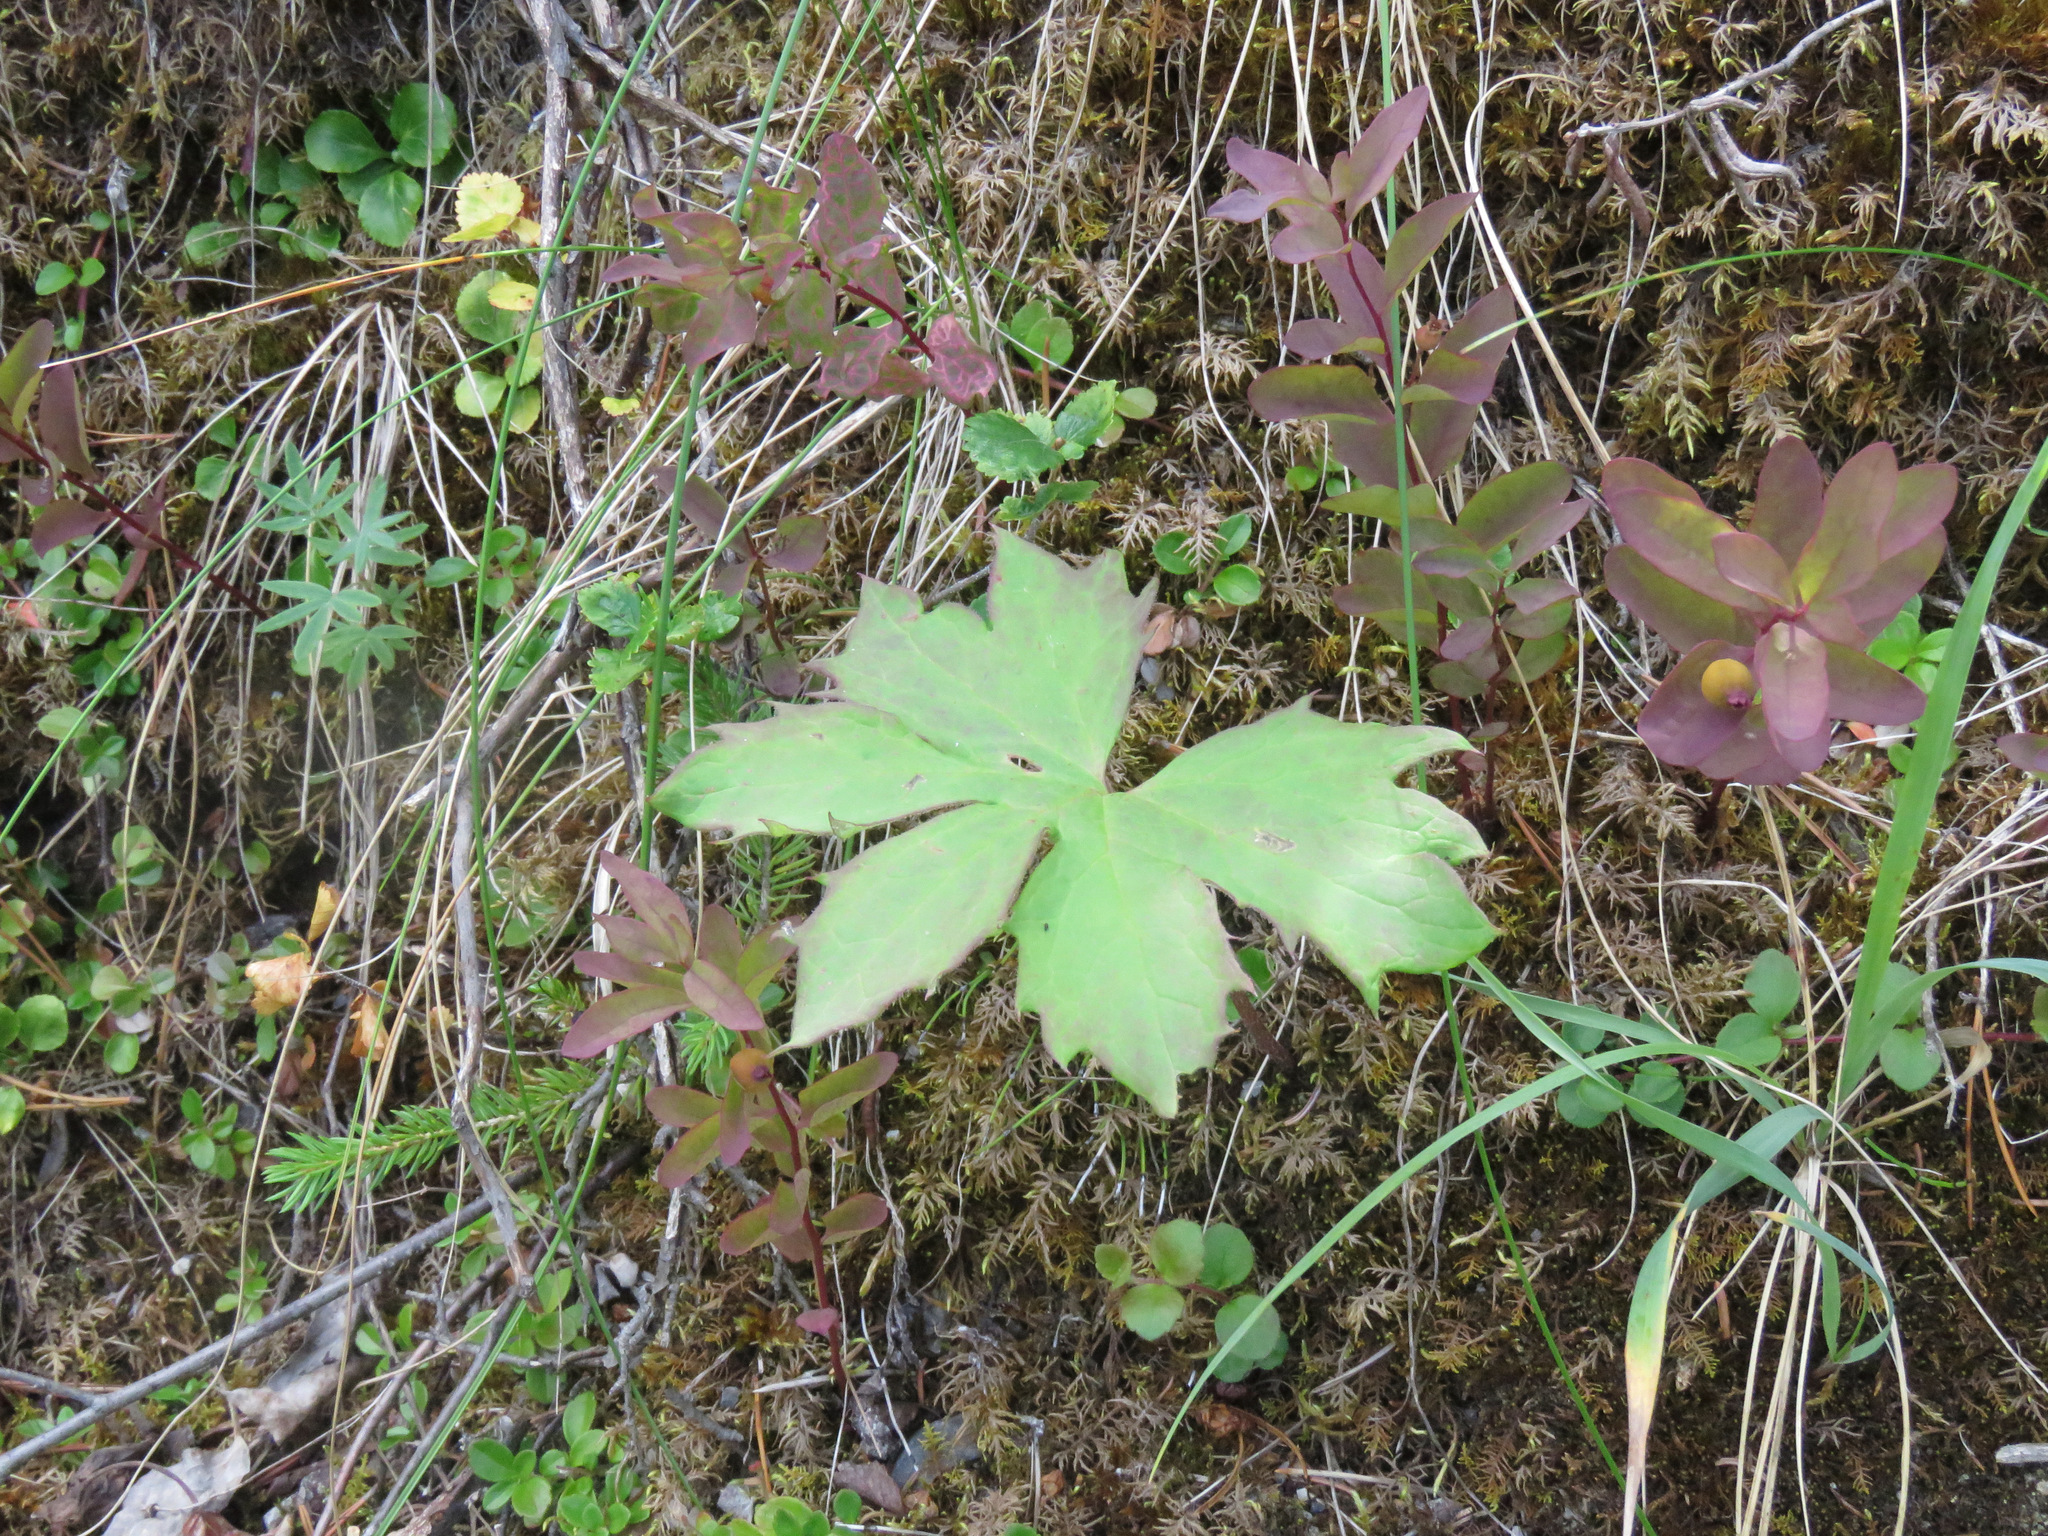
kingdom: Plantae
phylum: Tracheophyta
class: Magnoliopsida
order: Asterales
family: Asteraceae
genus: Petasites
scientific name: Petasites frigidus
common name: Arctic butterbur
